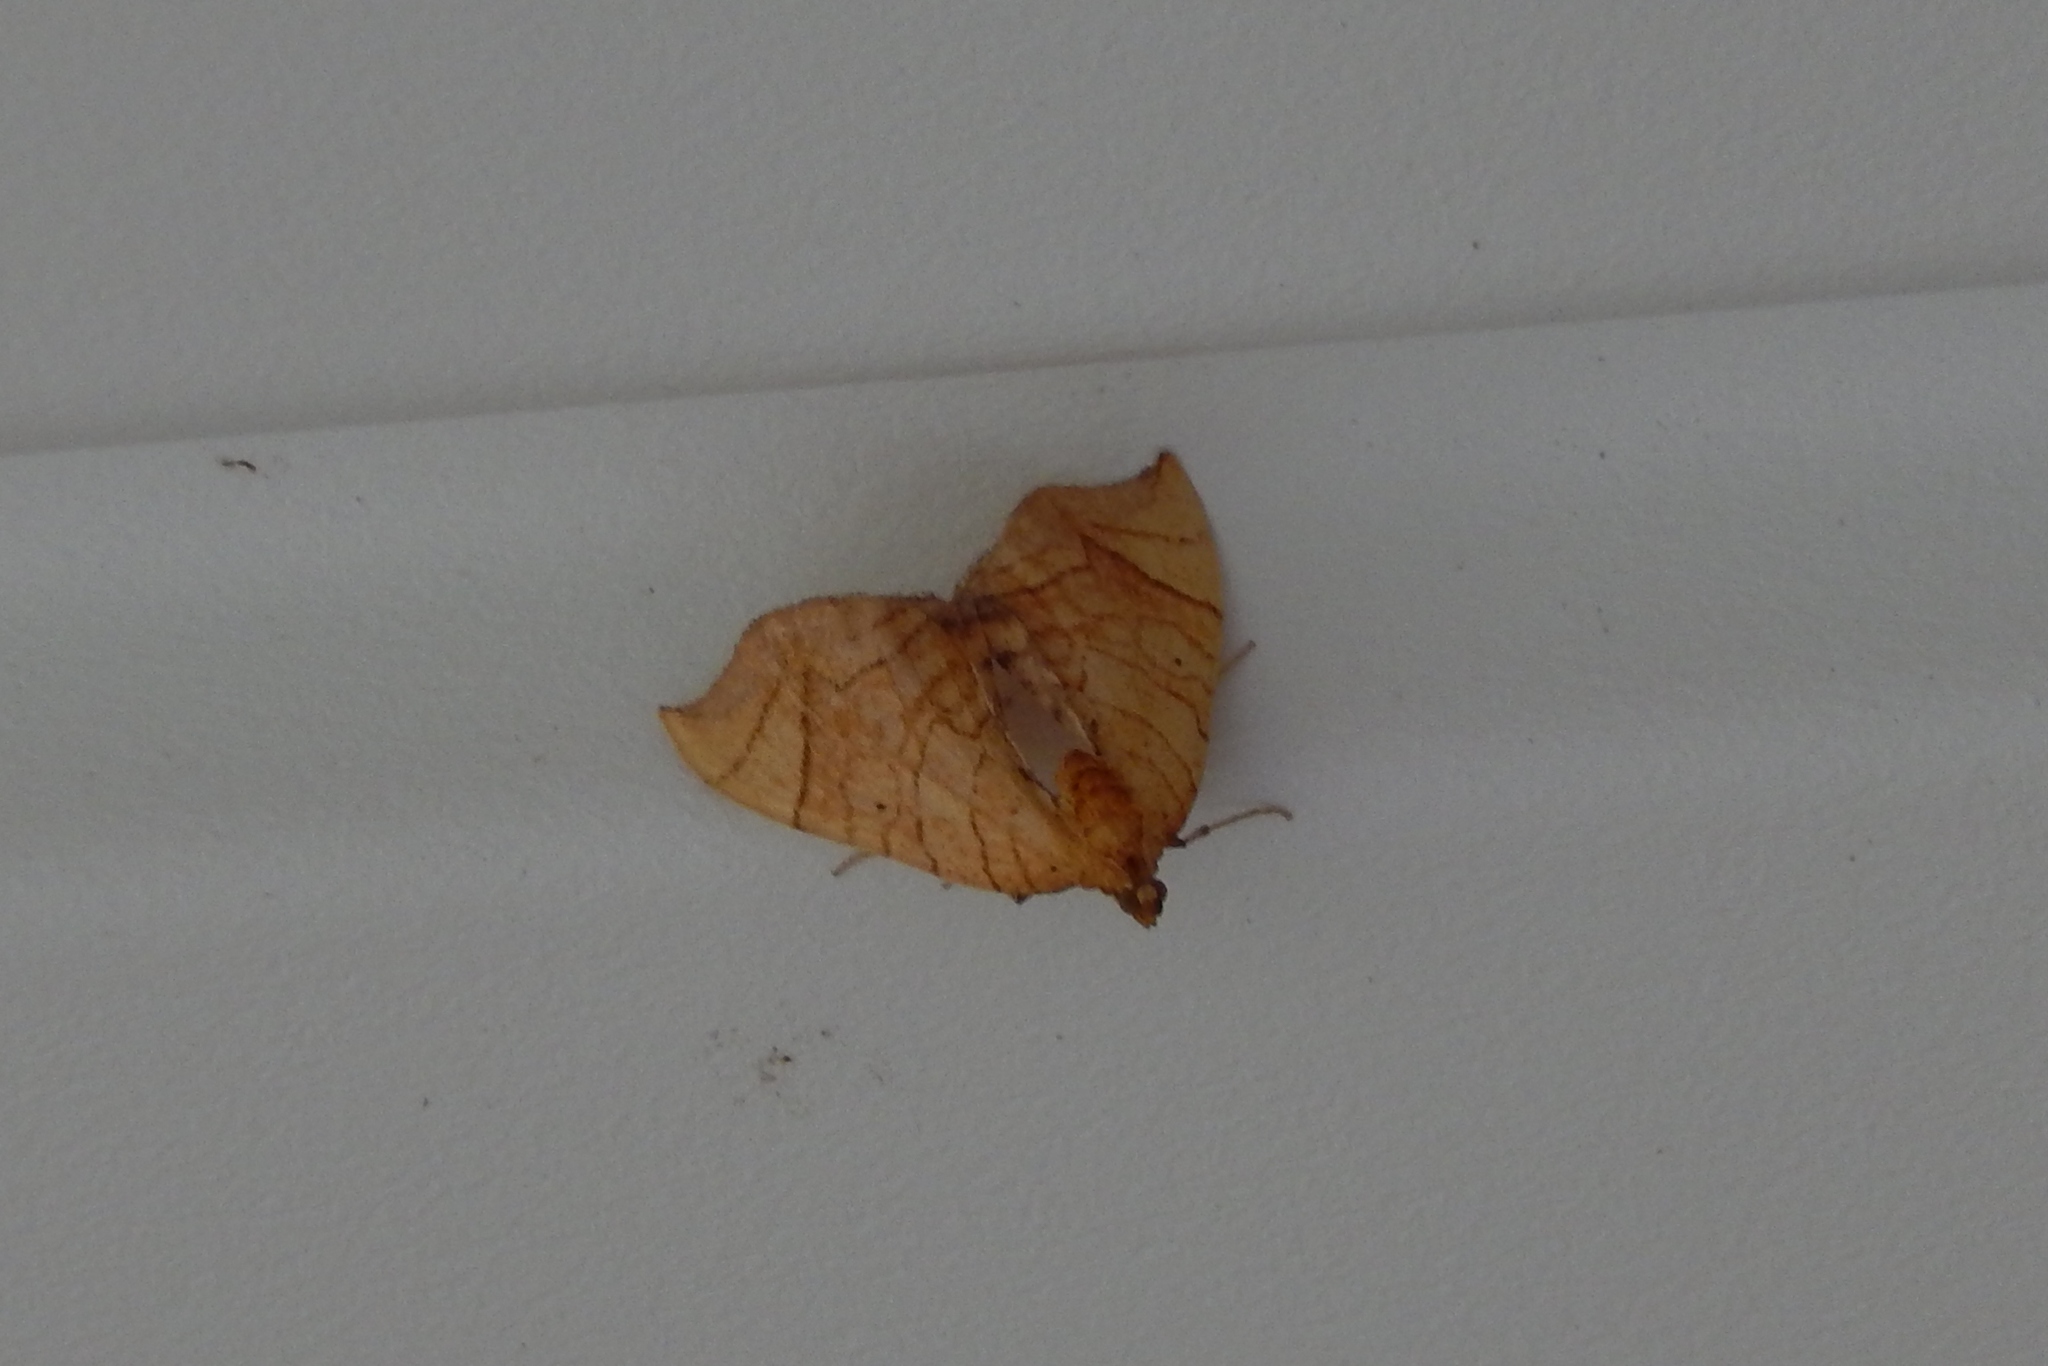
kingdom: Animalia
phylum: Arthropoda
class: Insecta
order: Lepidoptera
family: Geometridae
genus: Eulithis
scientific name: Eulithis gracilineata
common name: Greater grapevine looper moth
